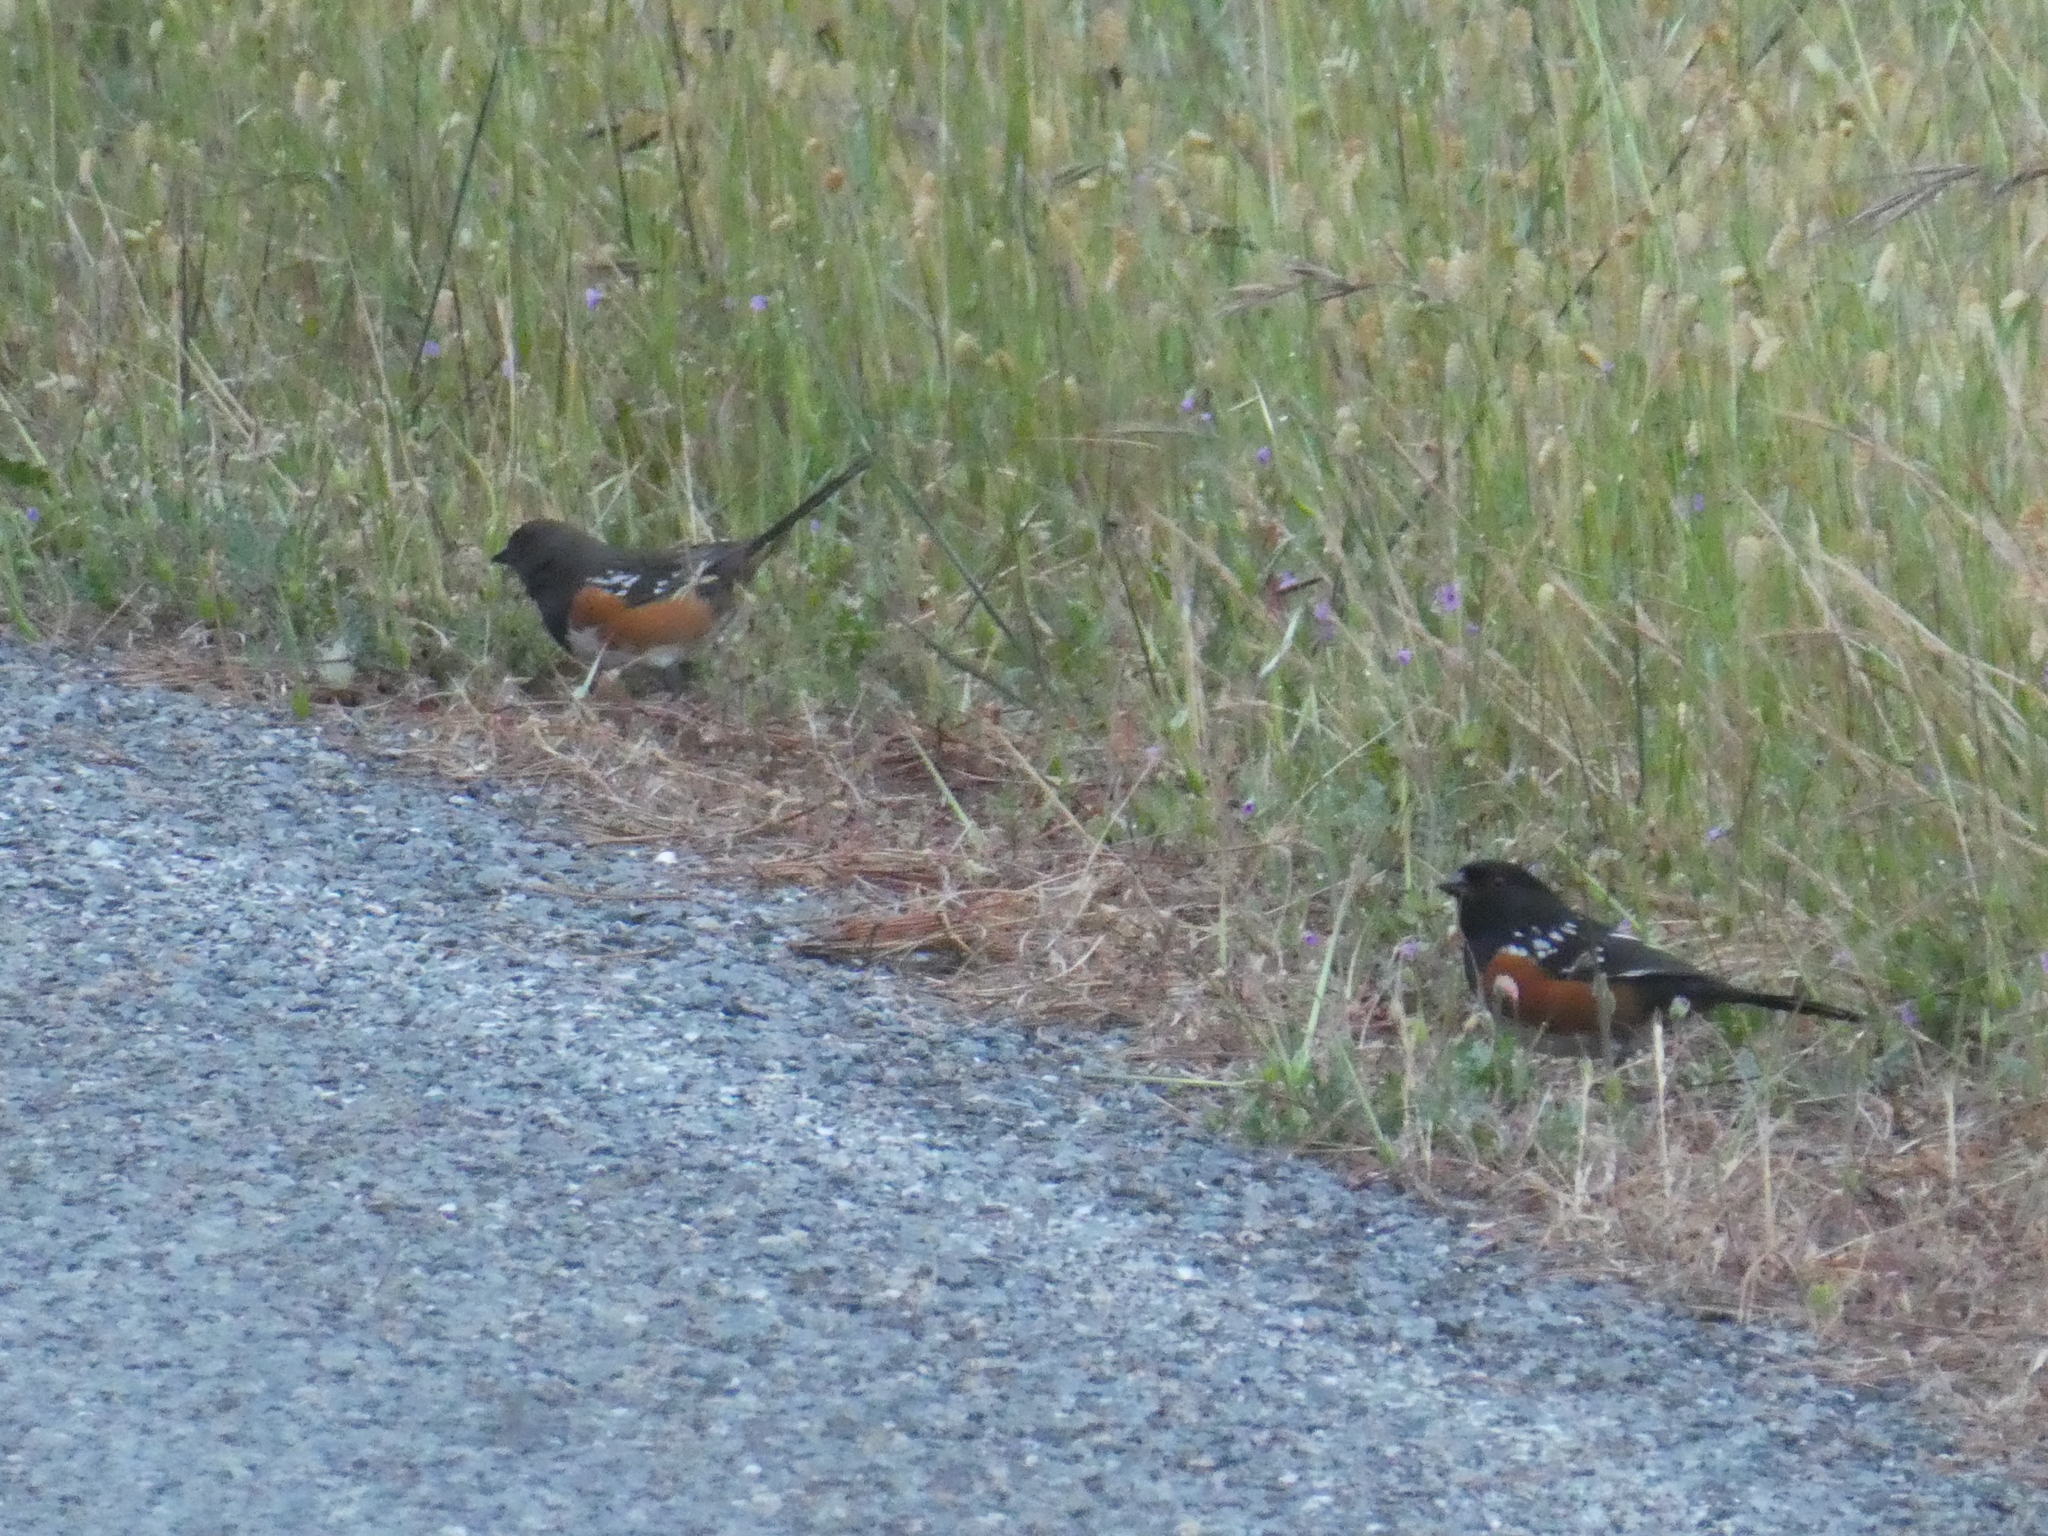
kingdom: Animalia
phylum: Chordata
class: Aves
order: Passeriformes
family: Passerellidae
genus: Pipilo
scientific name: Pipilo maculatus
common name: Spotted towhee
